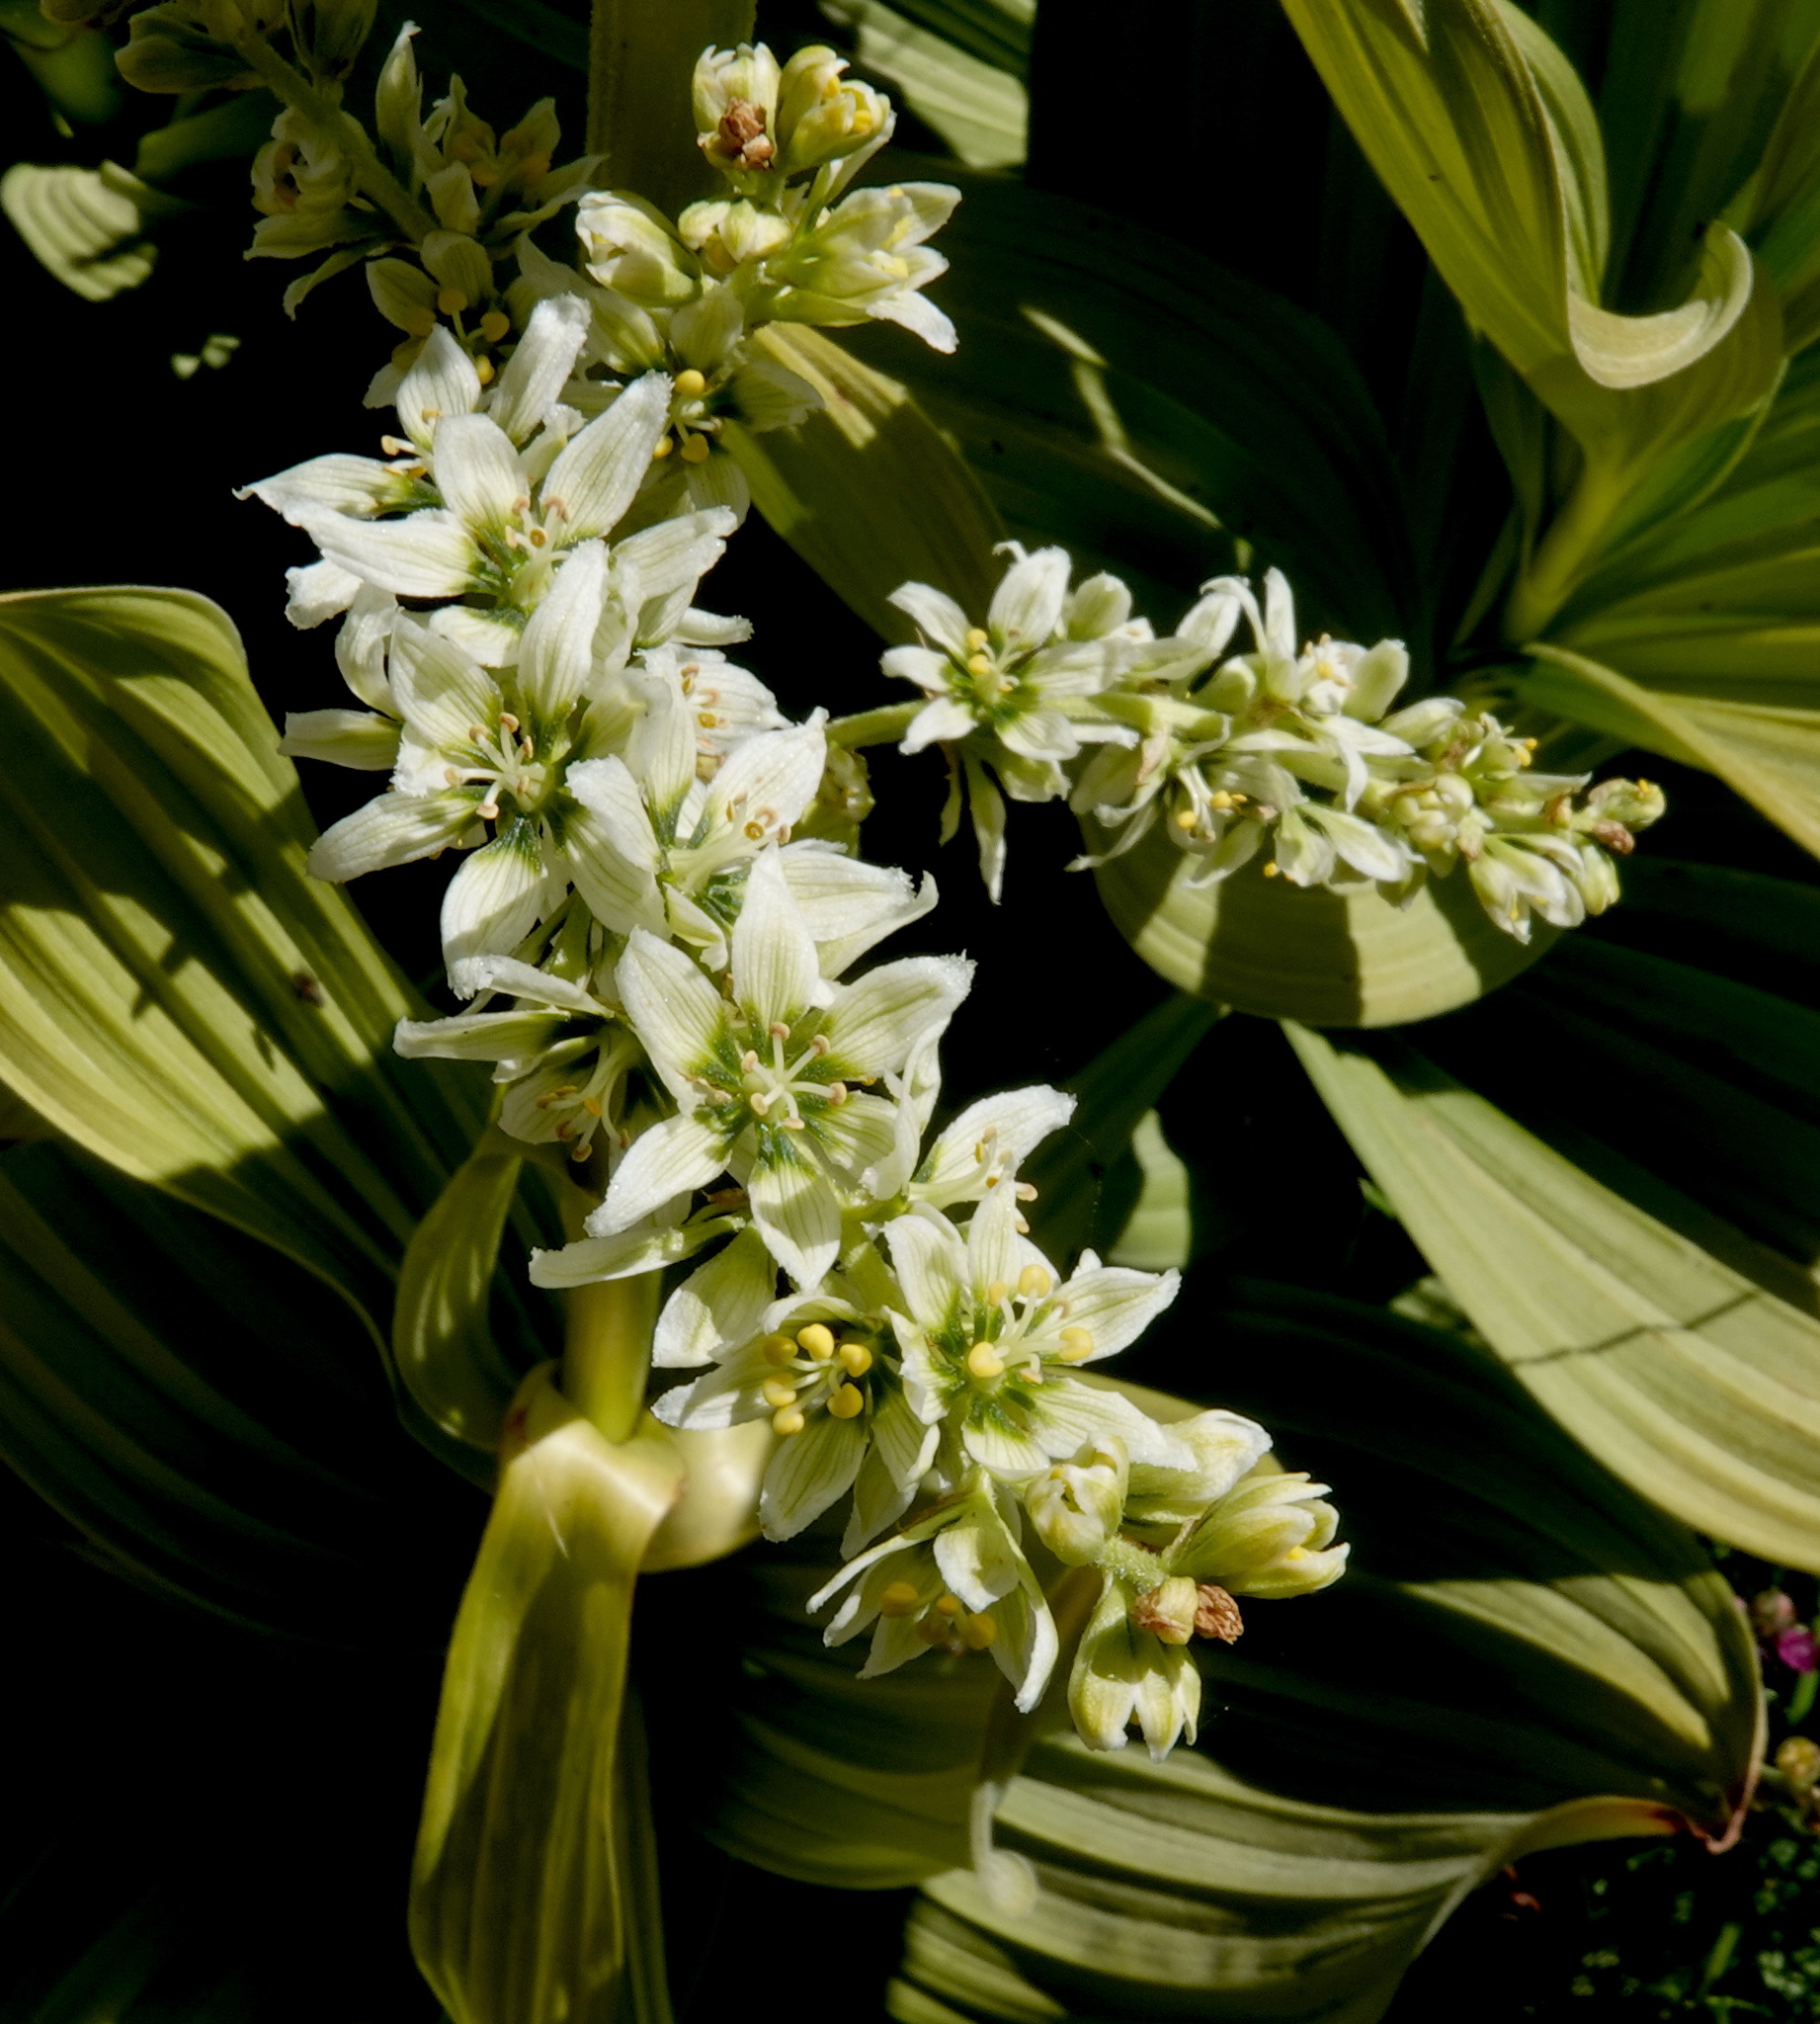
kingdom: Plantae
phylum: Tracheophyta
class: Liliopsida
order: Liliales
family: Melanthiaceae
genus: Veratrum
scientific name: Veratrum californicum
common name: California veratrum
